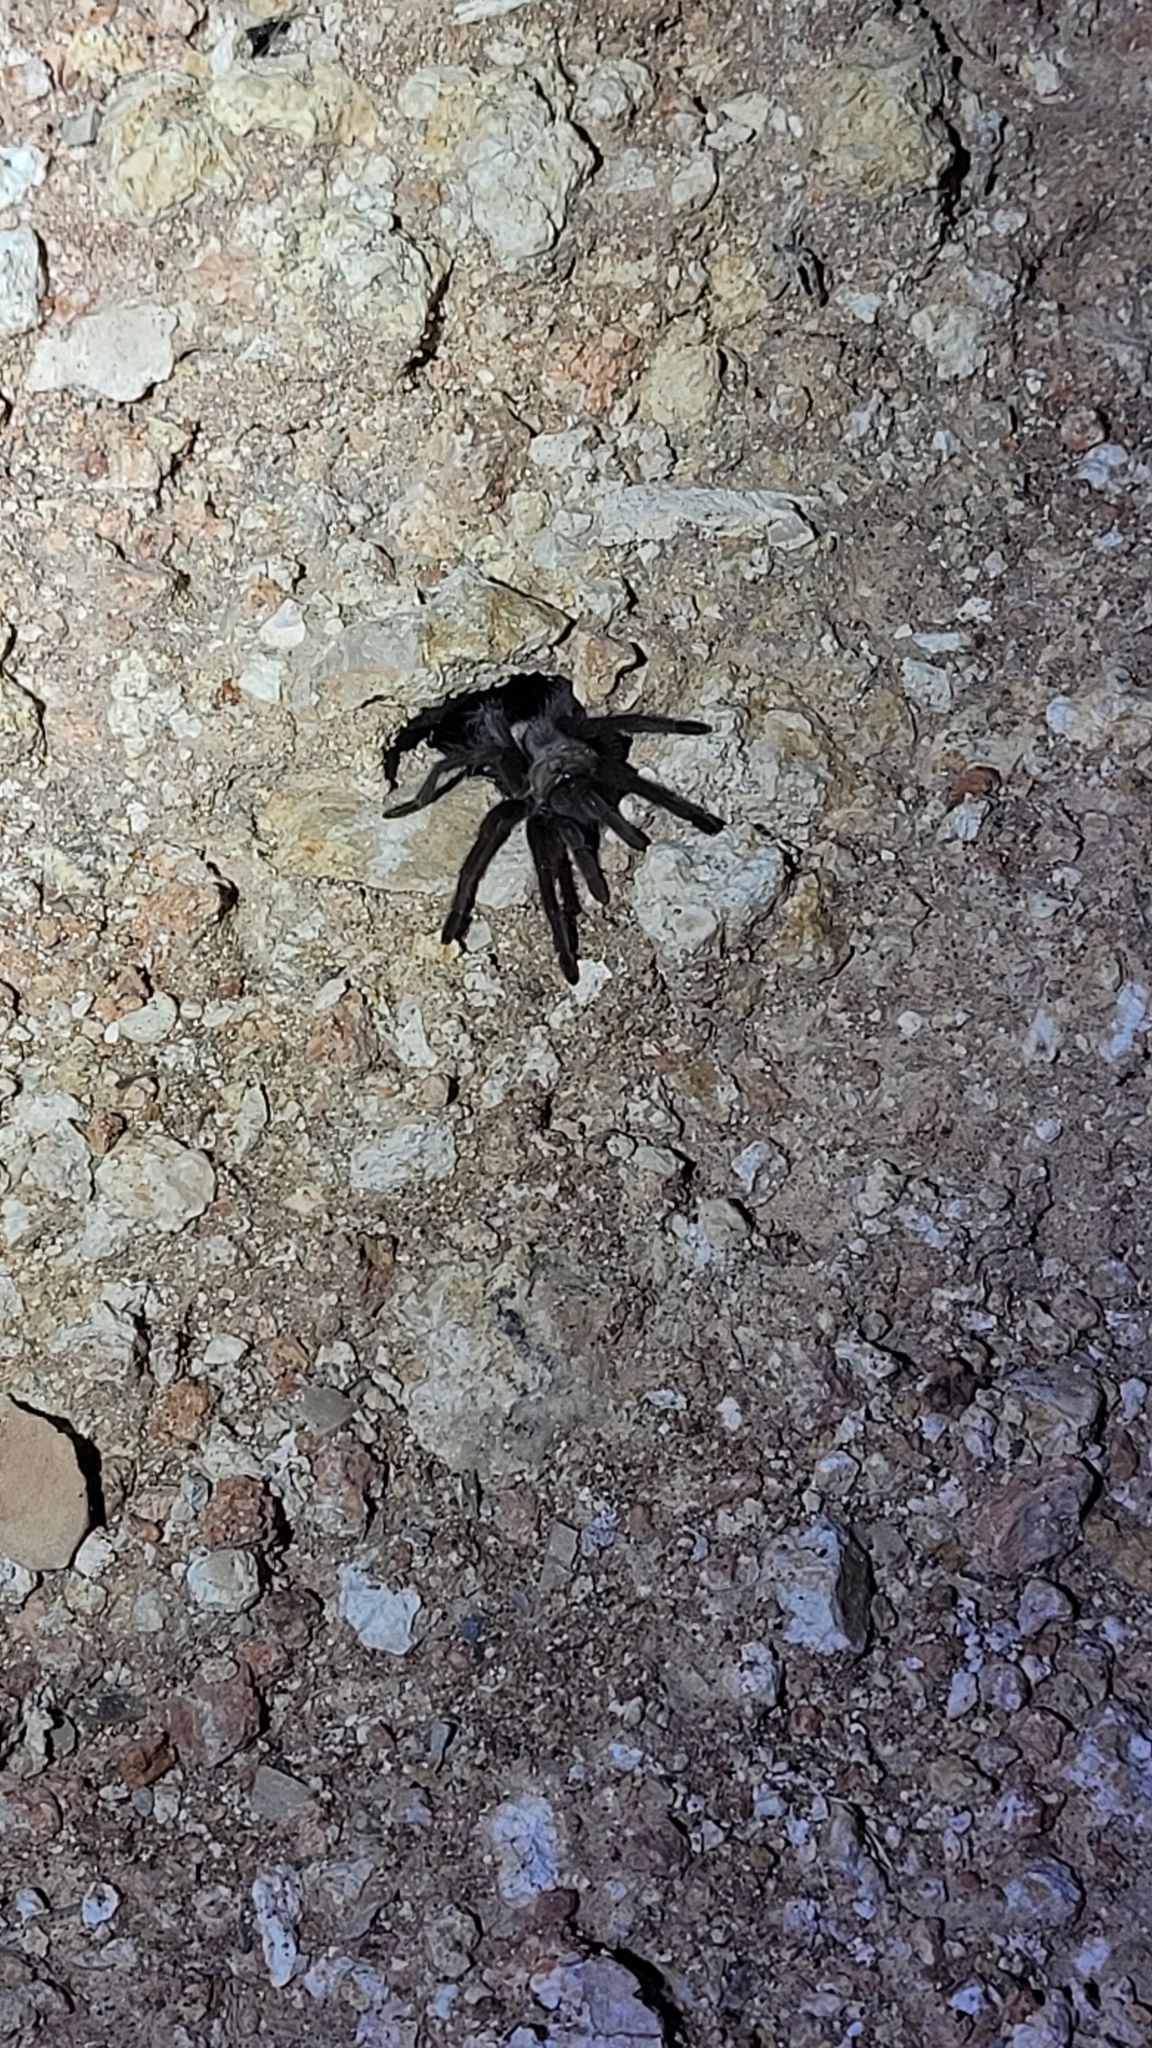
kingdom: Animalia
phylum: Arthropoda
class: Arachnida
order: Araneae
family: Theraphosidae
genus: Aphonopelma
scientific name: Aphonopelma hentzi
